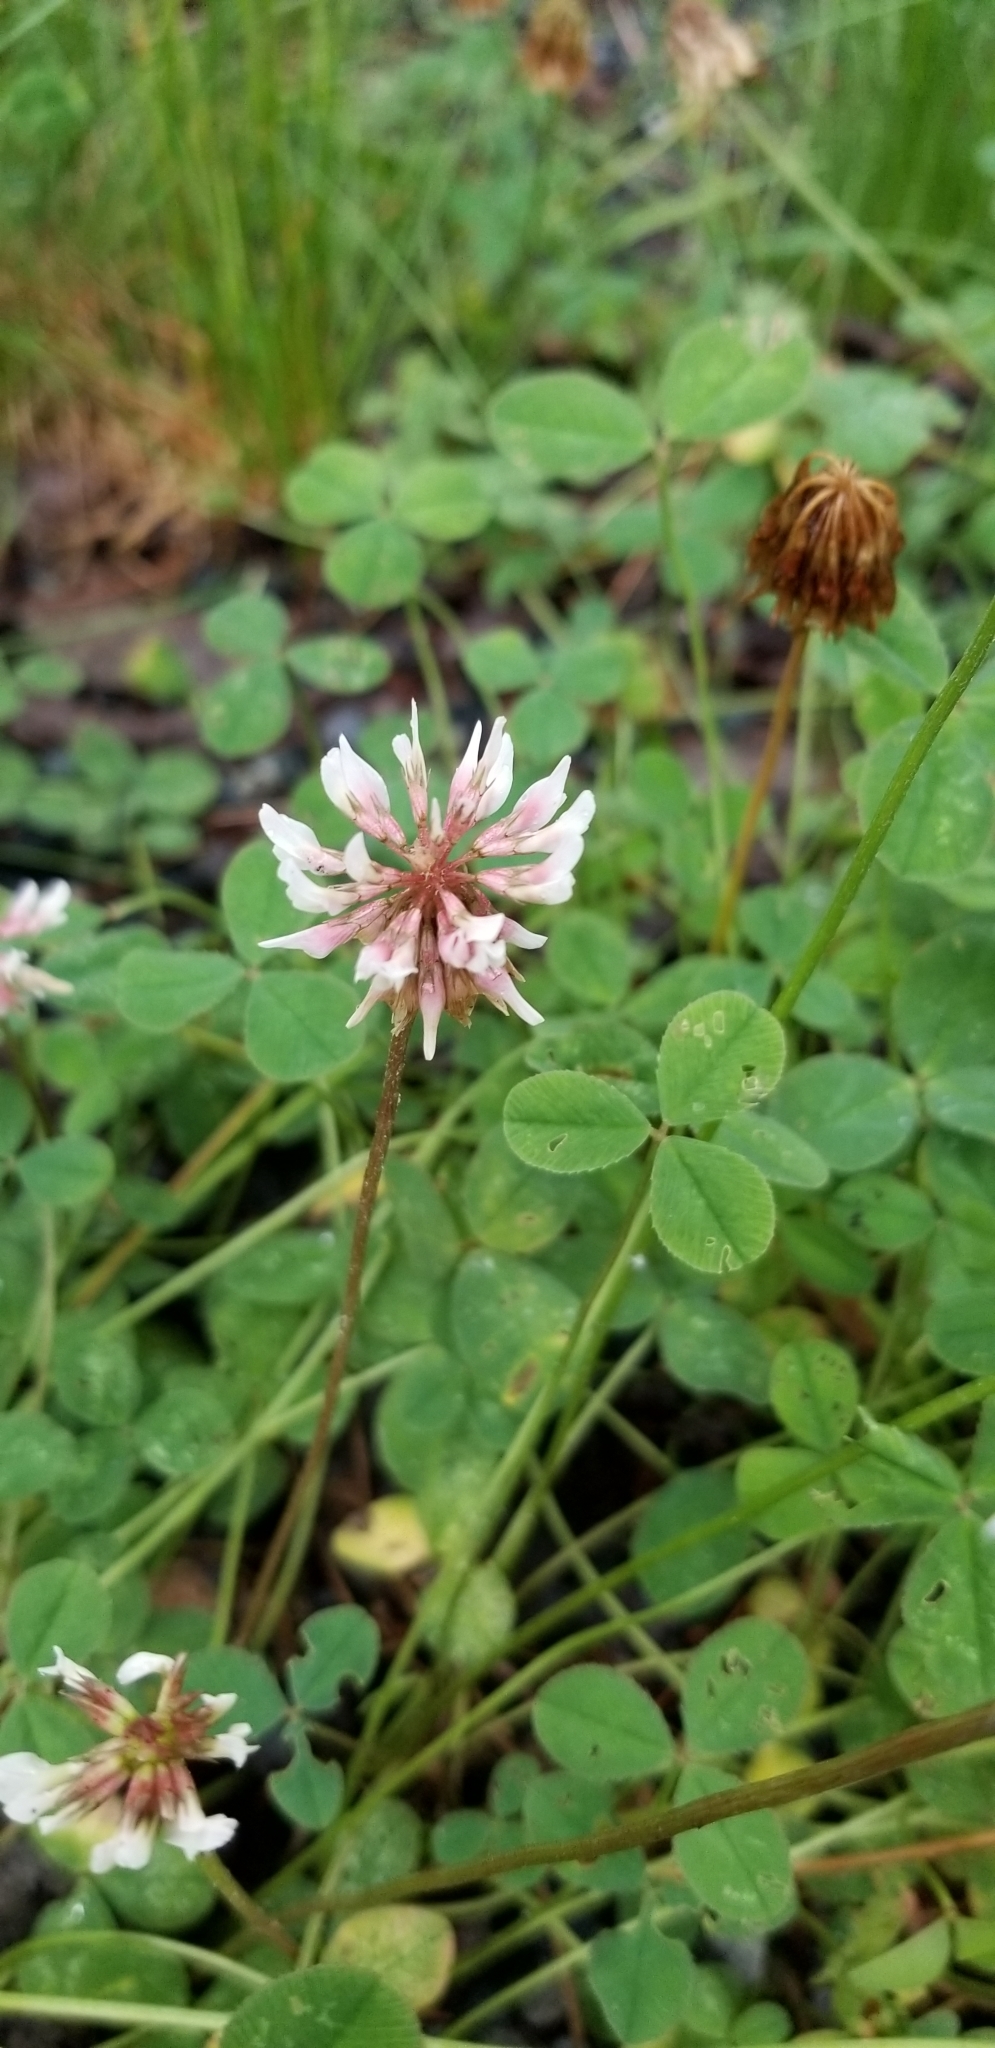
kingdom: Plantae
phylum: Tracheophyta
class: Magnoliopsida
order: Fabales
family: Fabaceae
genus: Trifolium
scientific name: Trifolium repens
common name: White clover
